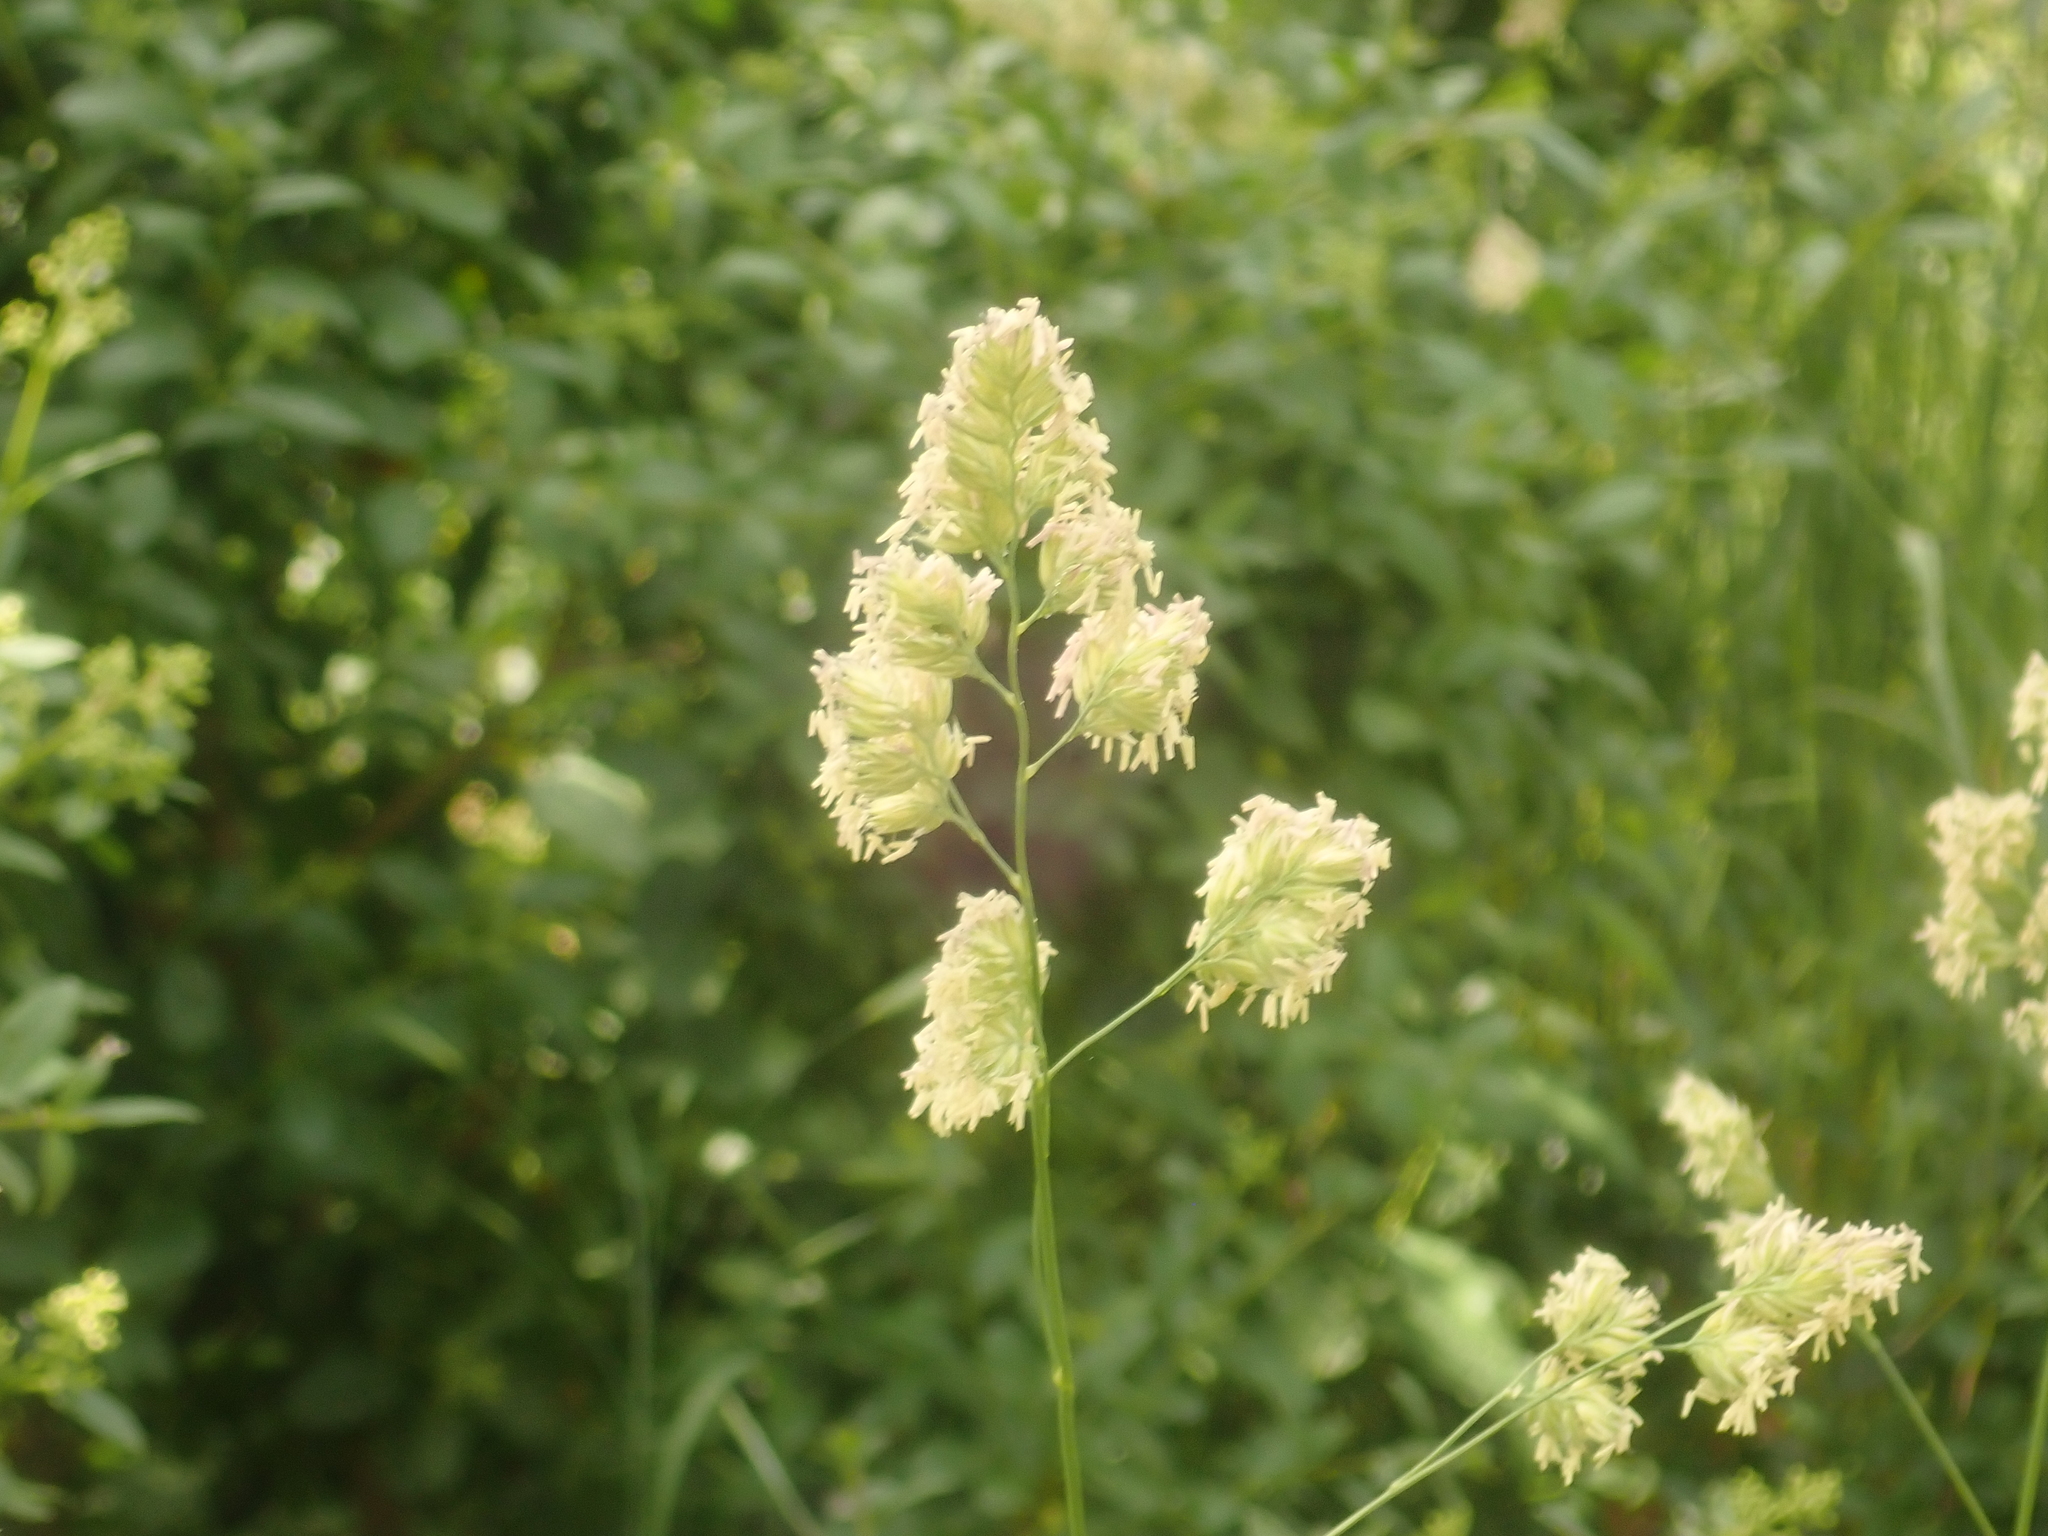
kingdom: Plantae
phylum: Tracheophyta
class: Liliopsida
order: Poales
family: Poaceae
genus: Dactylis
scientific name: Dactylis glomerata
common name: Orchardgrass
